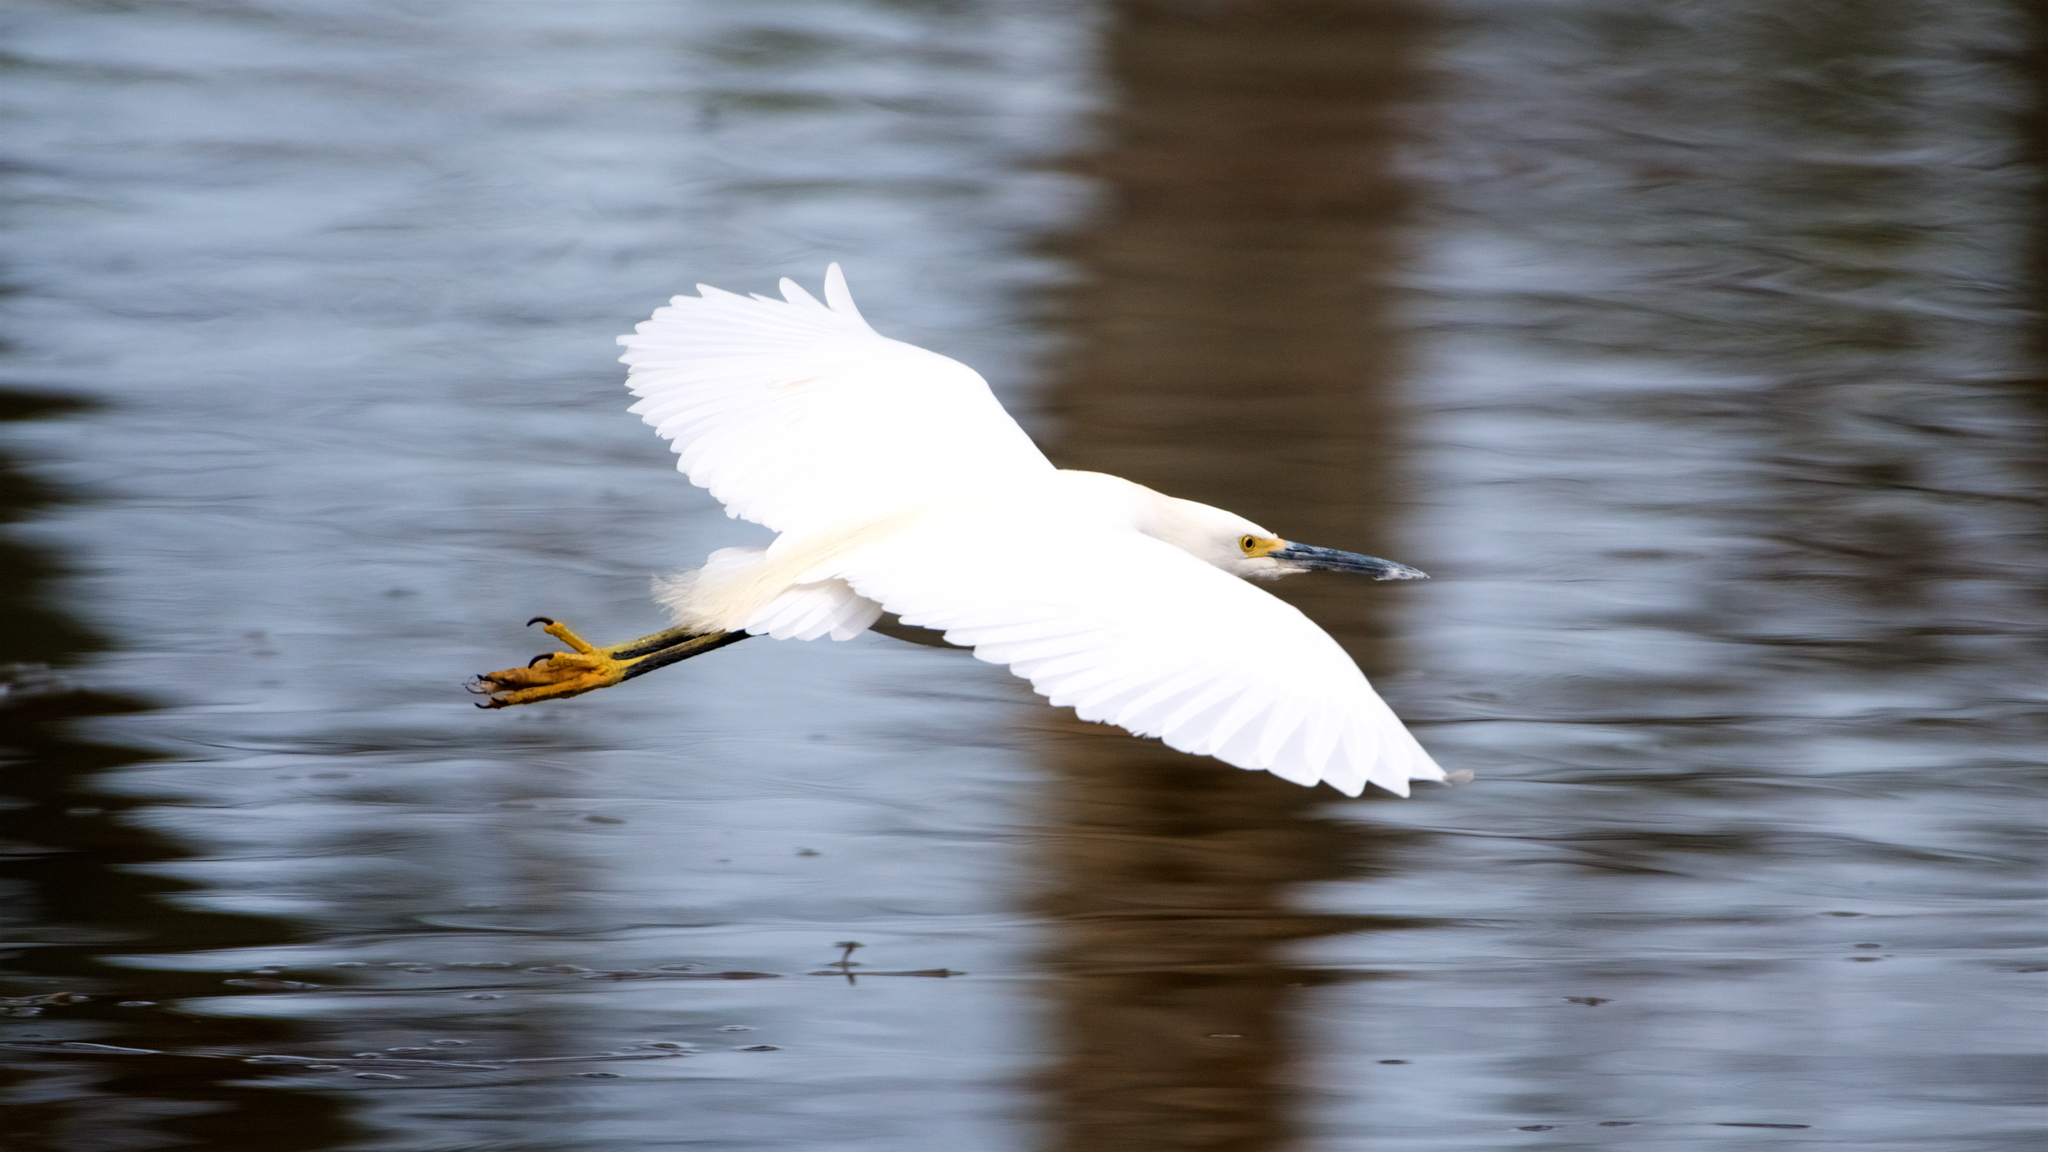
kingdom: Animalia
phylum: Chordata
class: Aves
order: Pelecaniformes
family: Ardeidae
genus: Egretta
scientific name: Egretta thula
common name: Snowy egret
